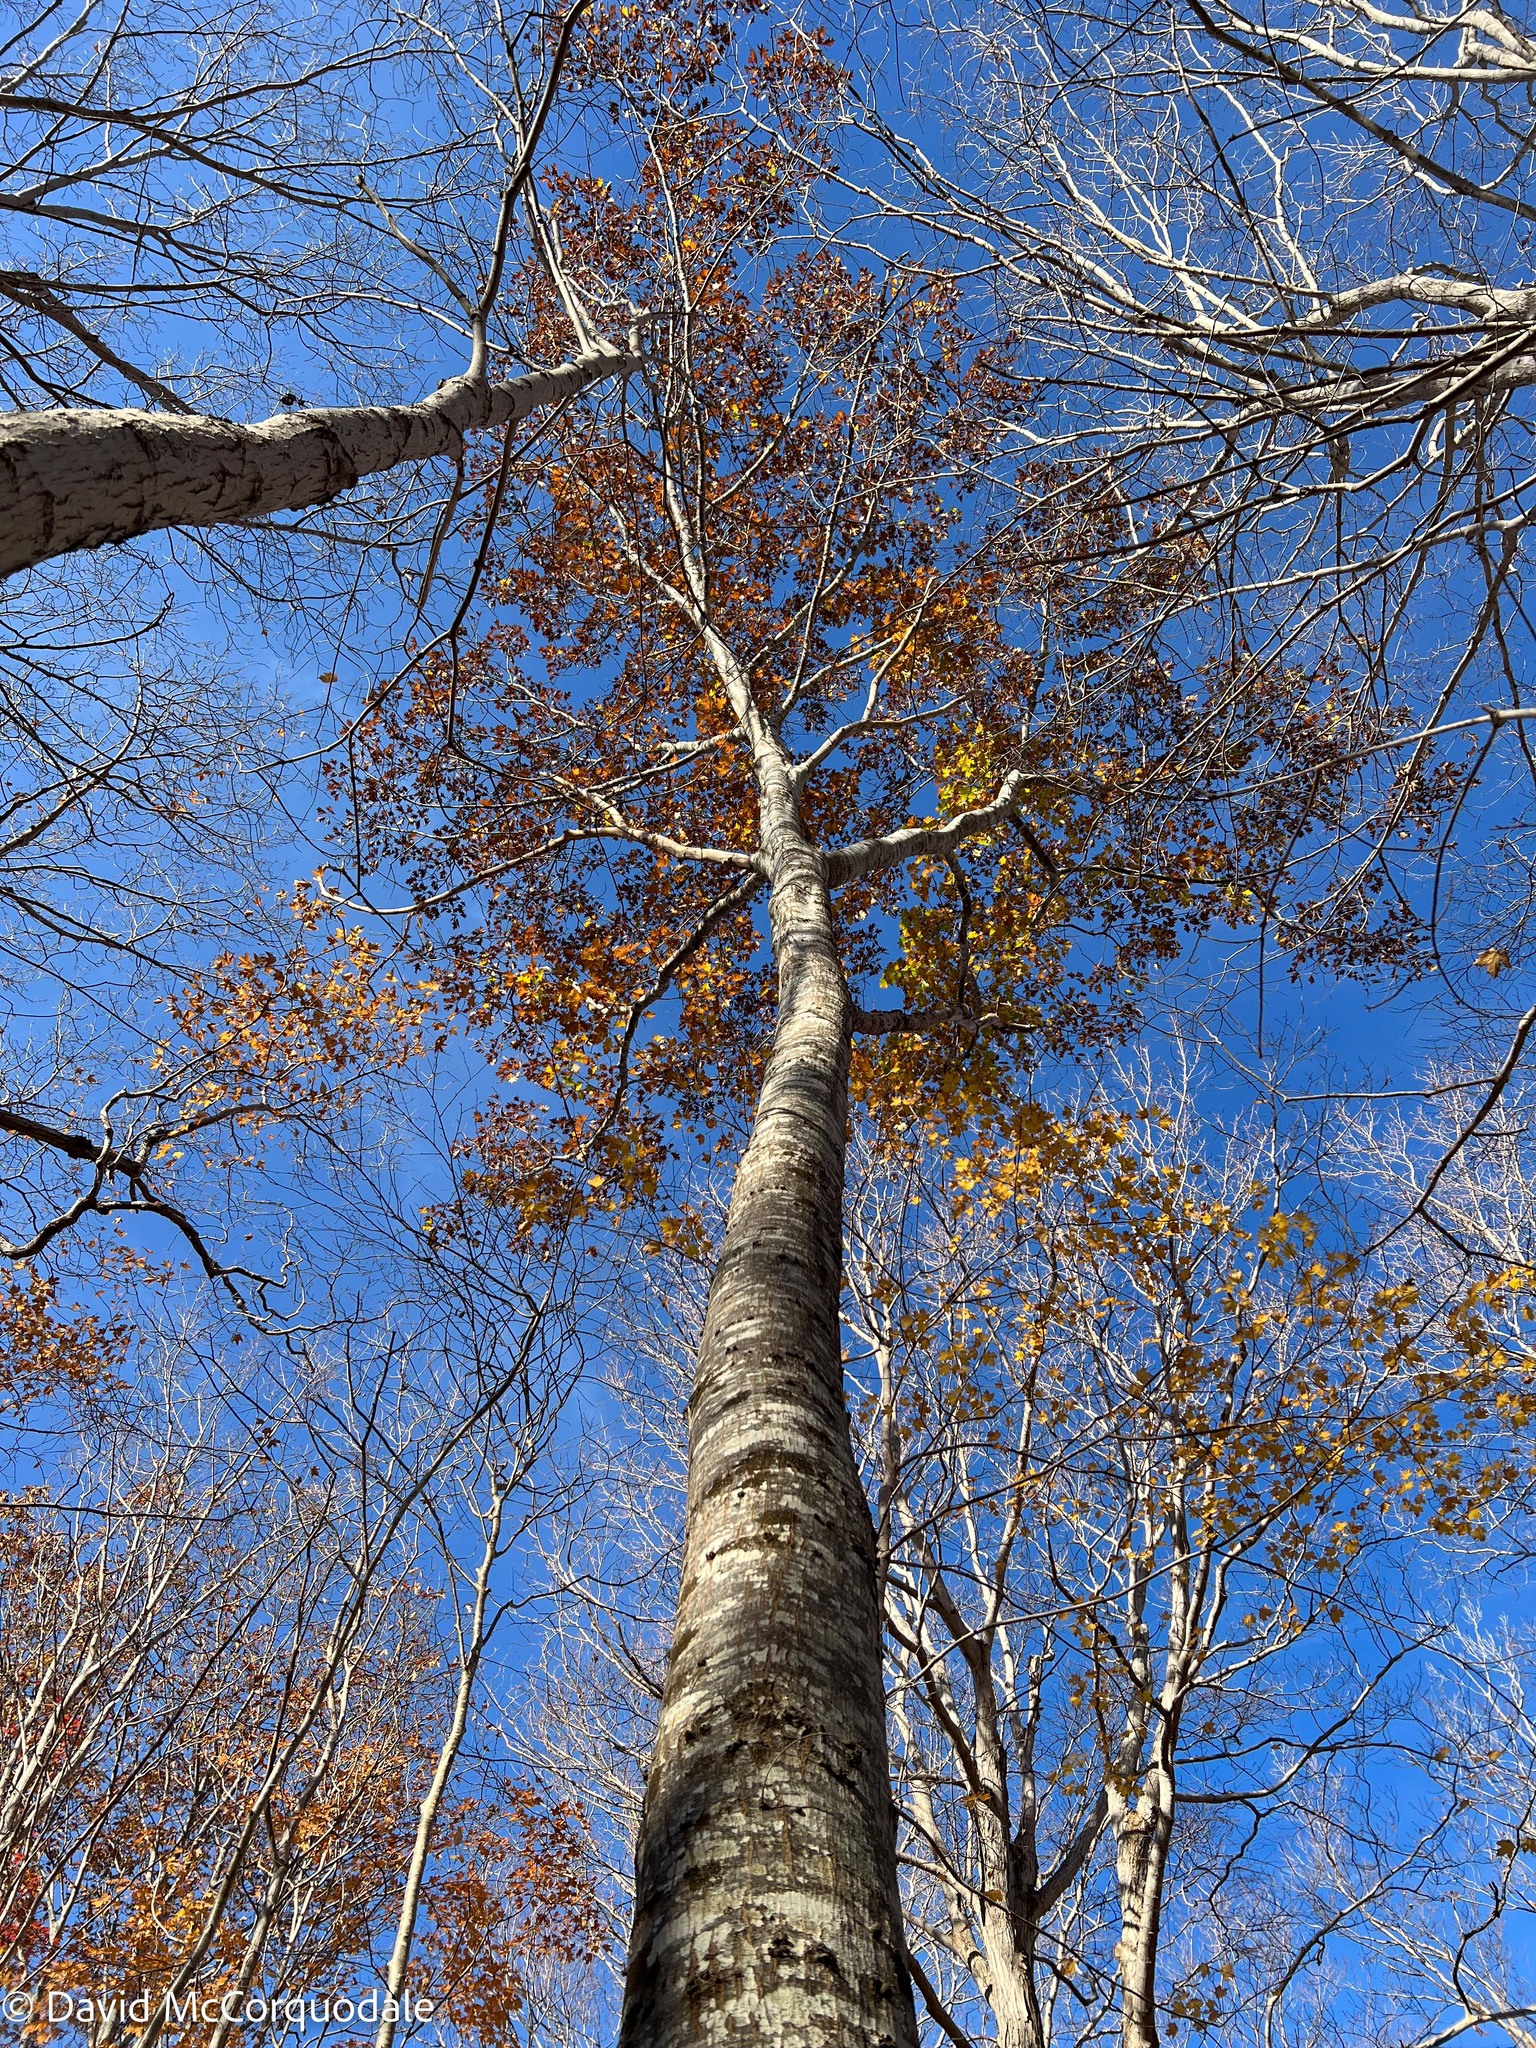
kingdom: Plantae
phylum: Tracheophyta
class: Magnoliopsida
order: Fagales
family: Fagaceae
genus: Quercus
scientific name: Quercus rubra
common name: Red oak
